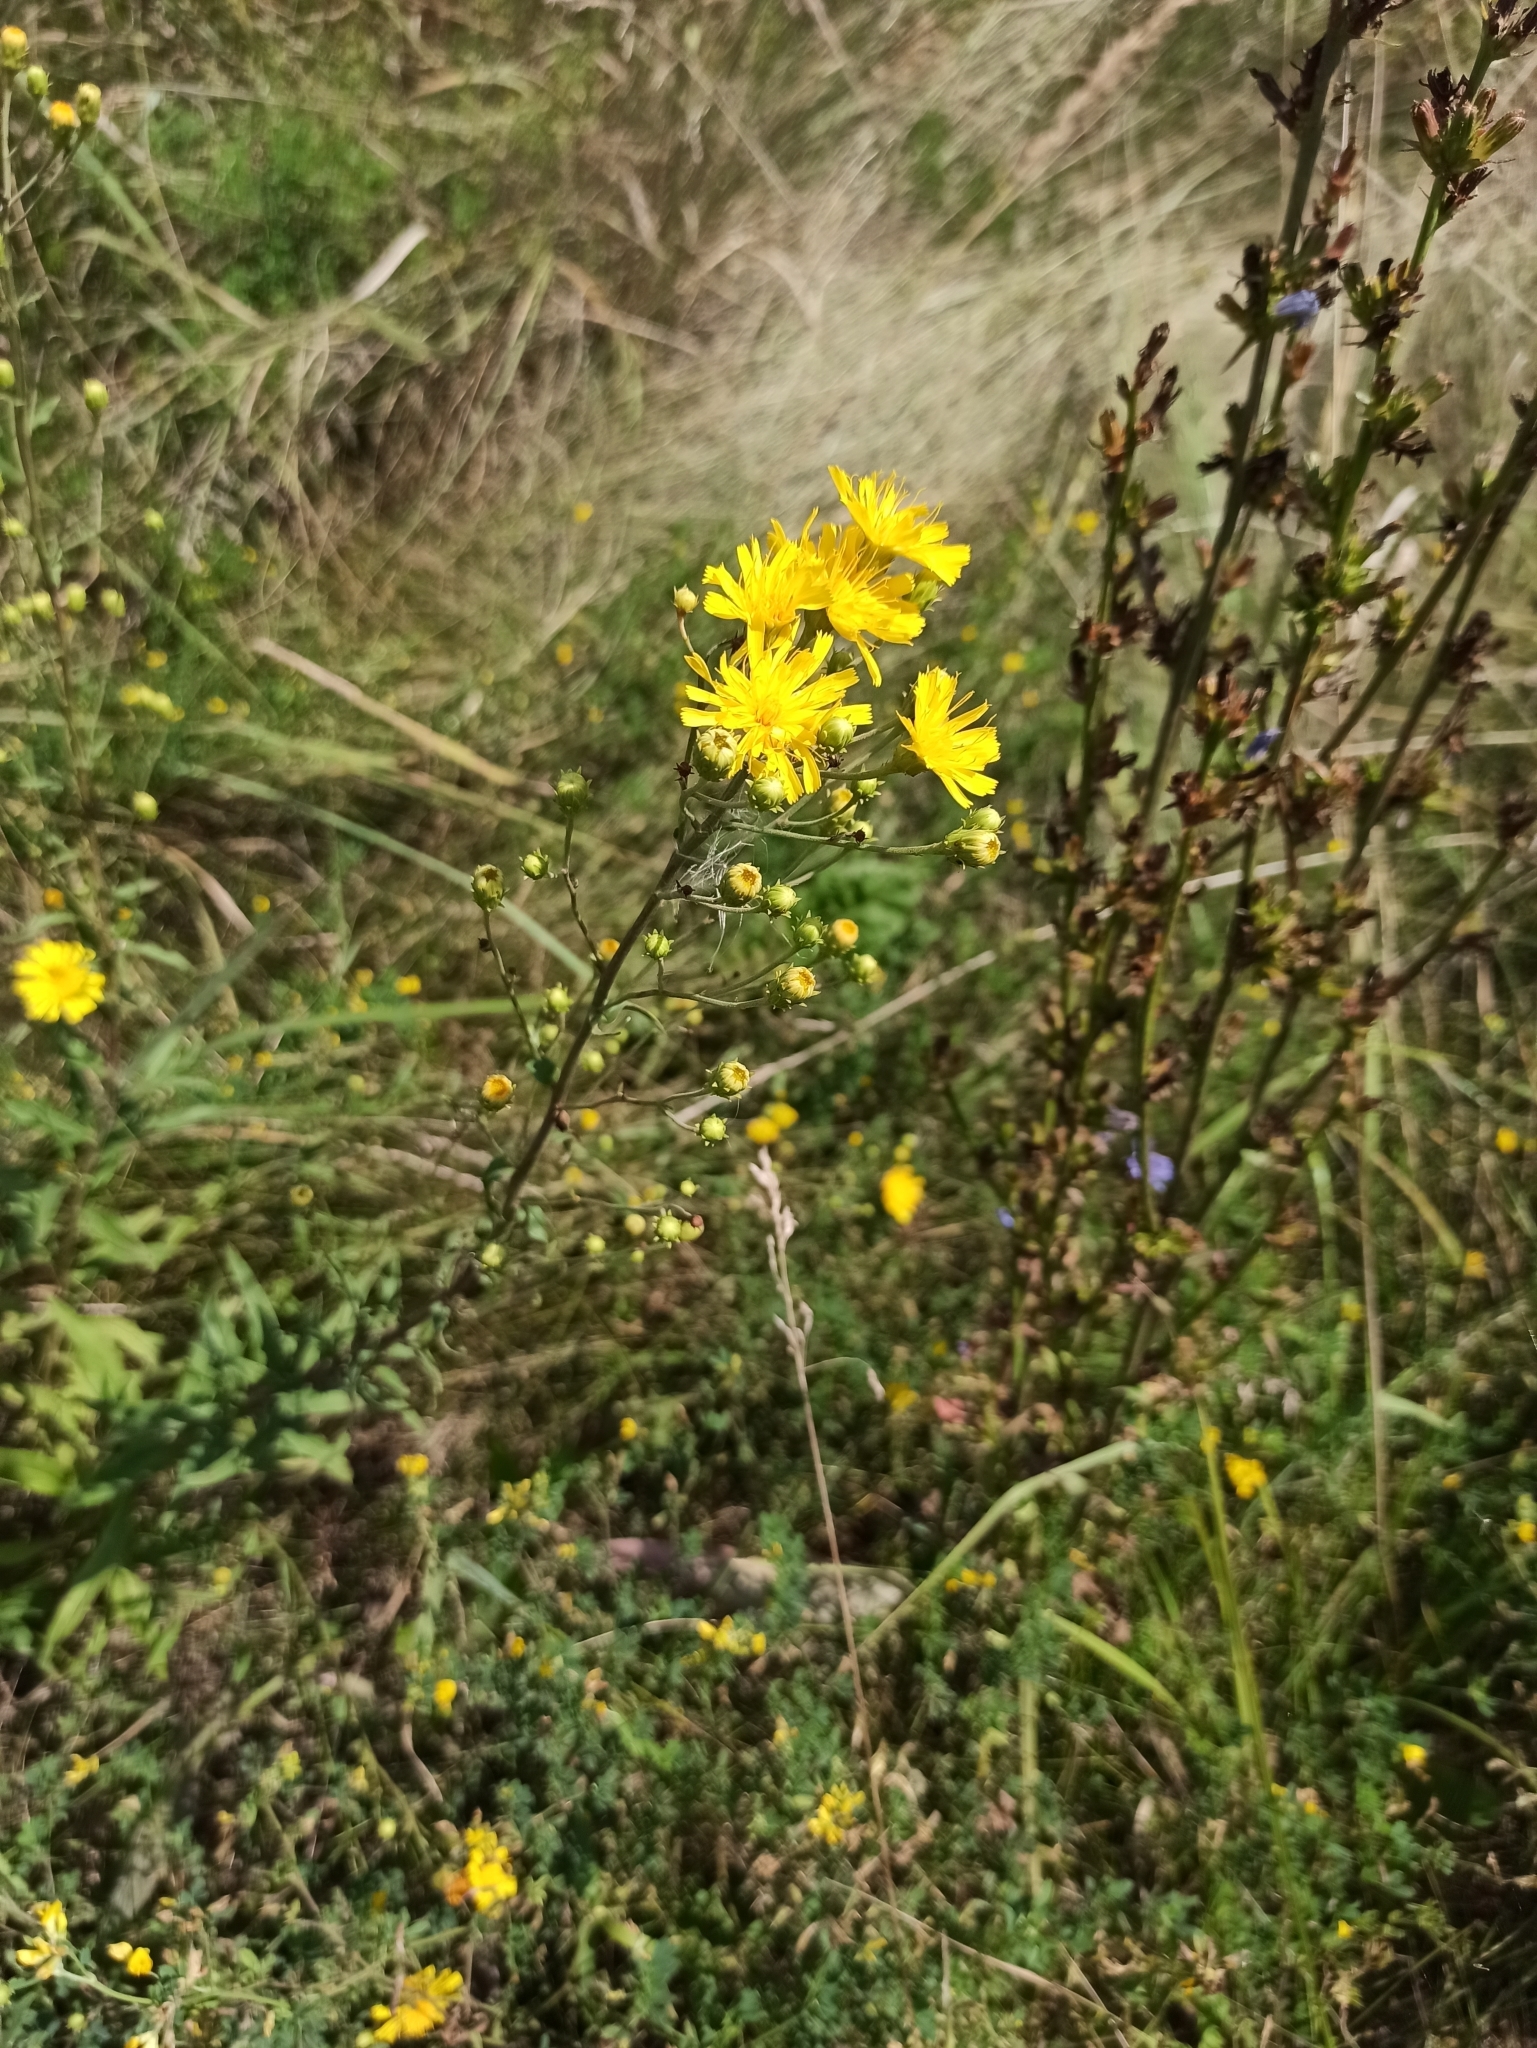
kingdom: Plantae
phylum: Tracheophyta
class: Magnoliopsida
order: Asterales
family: Asteraceae
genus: Hieracium
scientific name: Hieracium umbellatum
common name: Northern hawkweed
